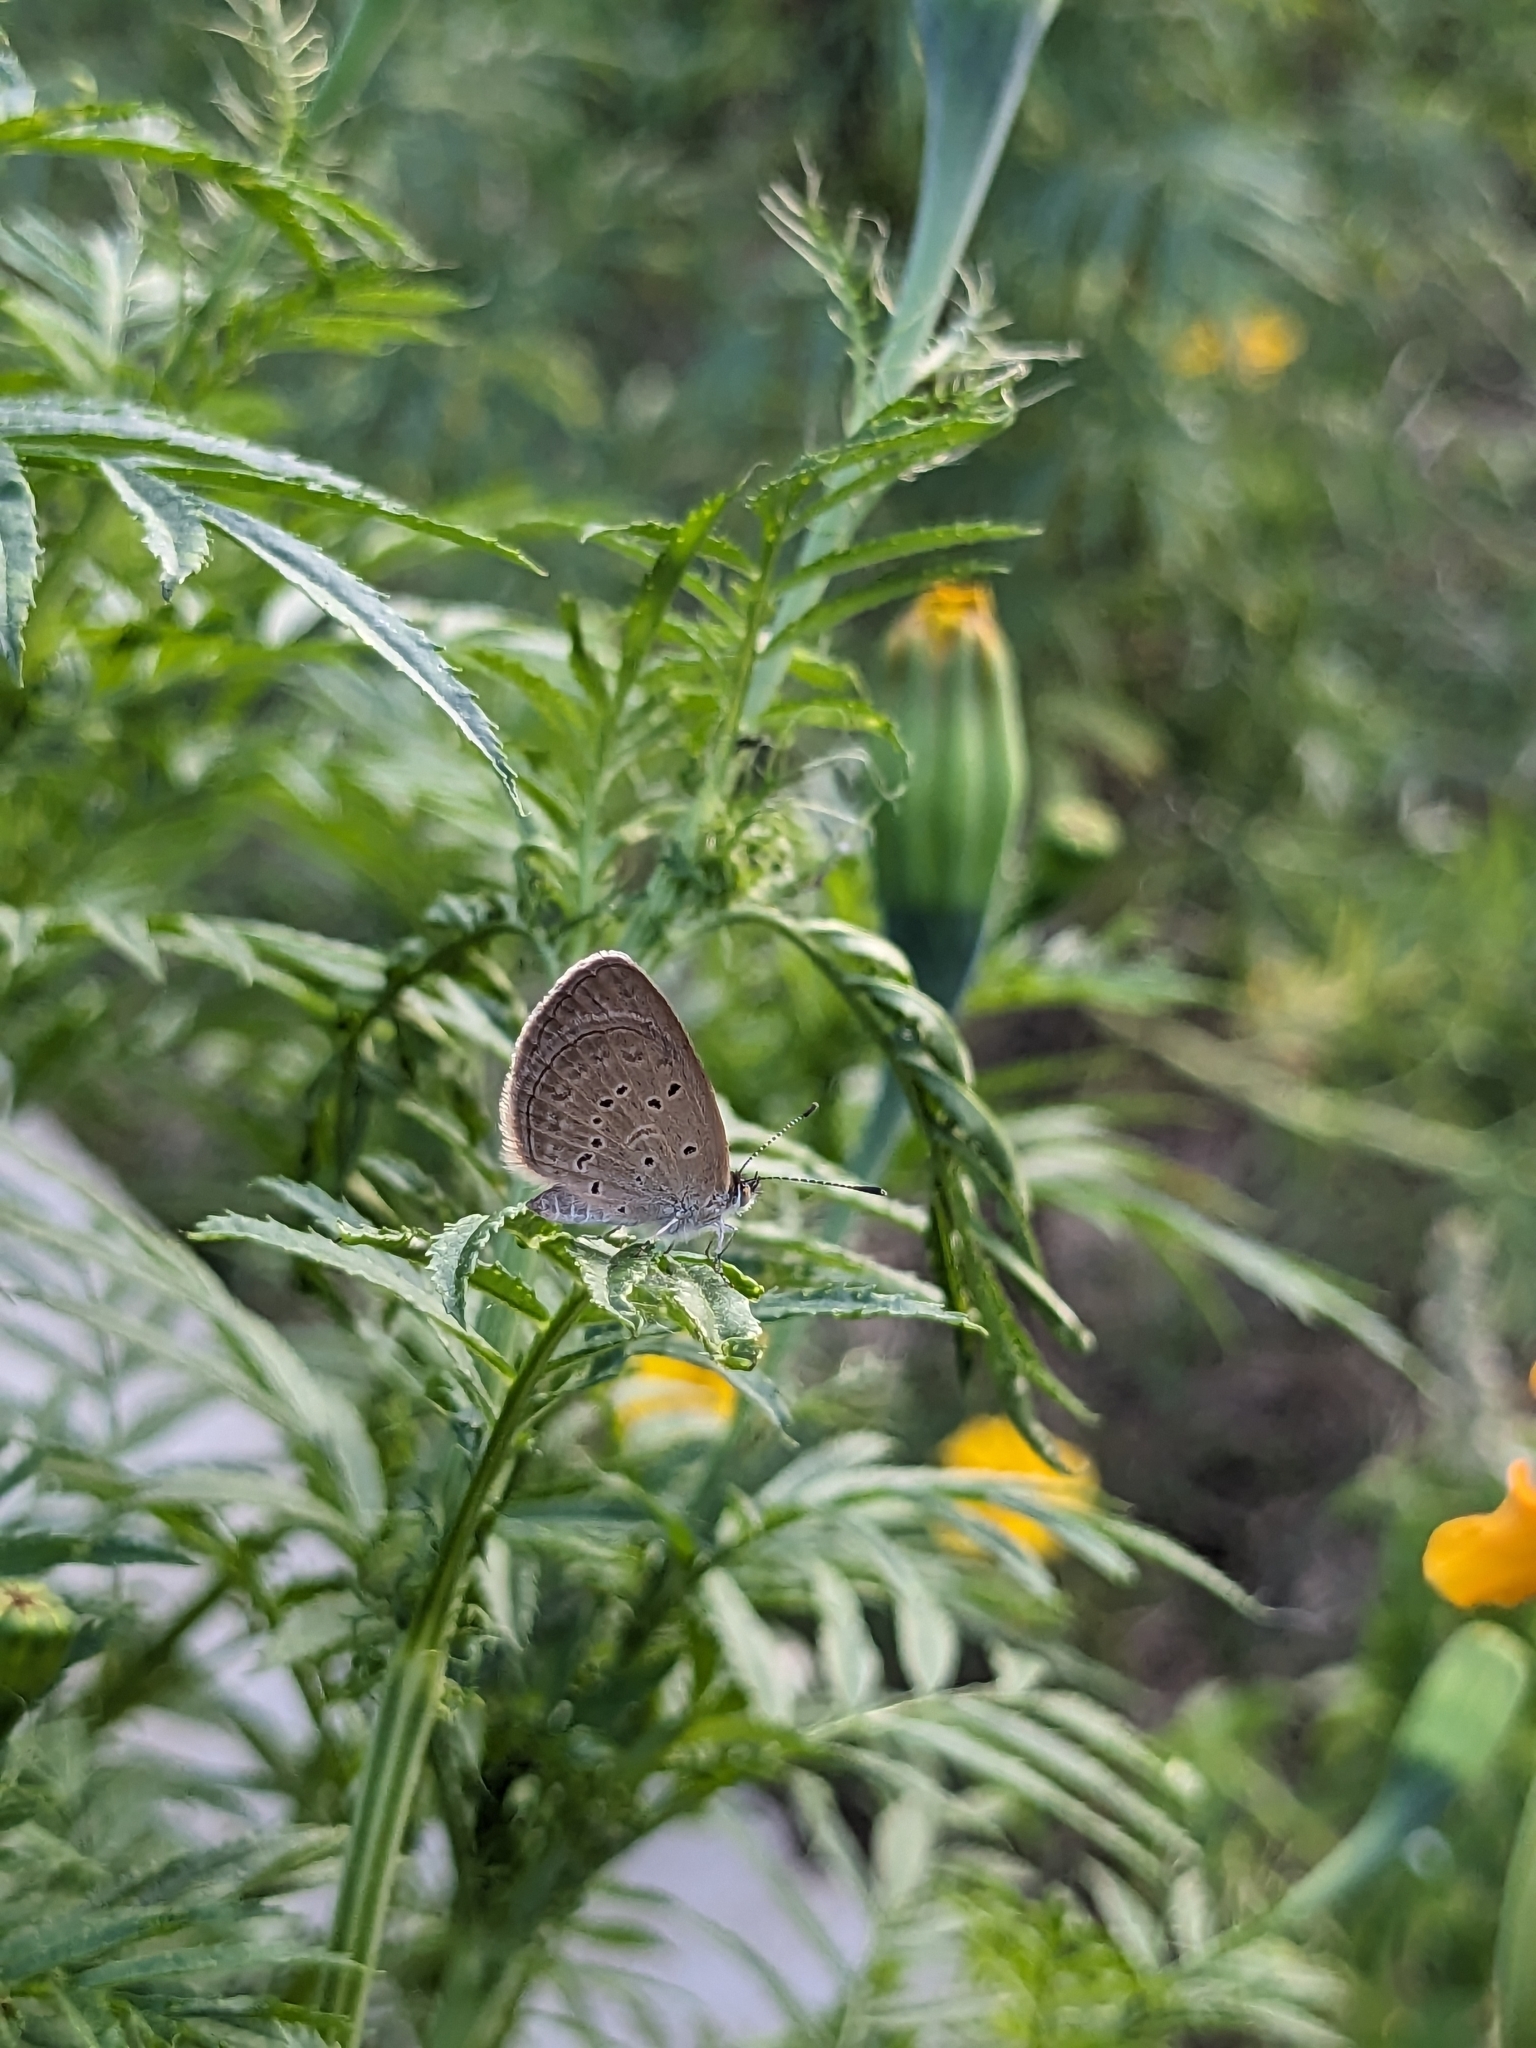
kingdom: Animalia
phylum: Arthropoda
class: Insecta
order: Lepidoptera
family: Lycaenidae
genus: Zizina
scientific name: Zizina otis
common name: Lesser grass blue
